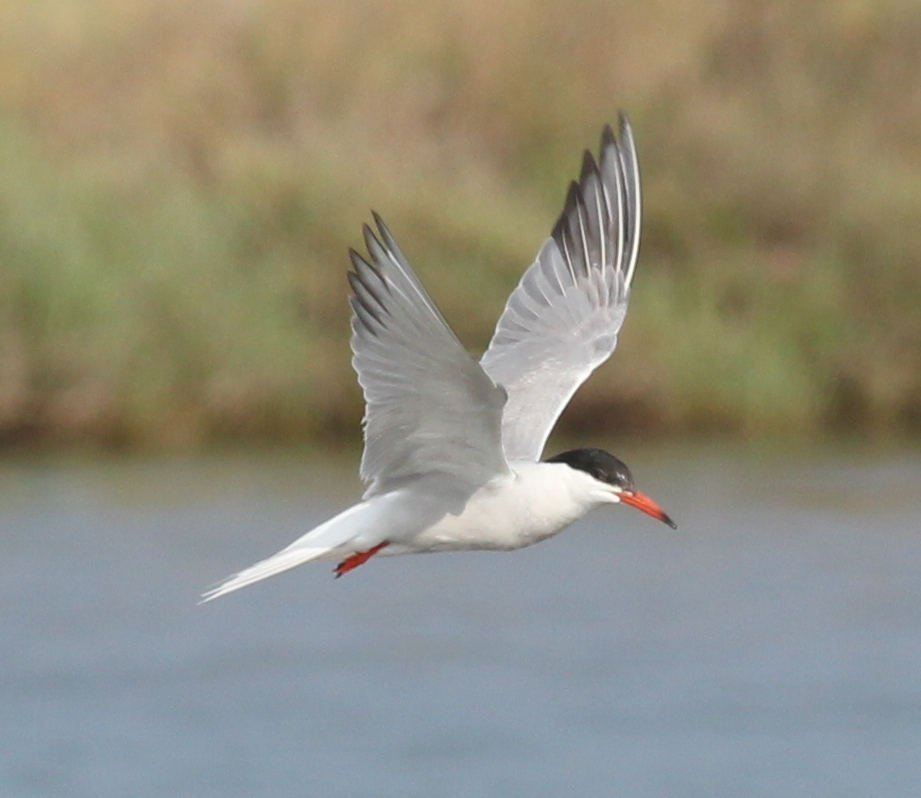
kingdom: Animalia
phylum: Chordata
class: Aves
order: Charadriiformes
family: Laridae
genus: Sterna
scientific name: Sterna hirundo
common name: Common tern
